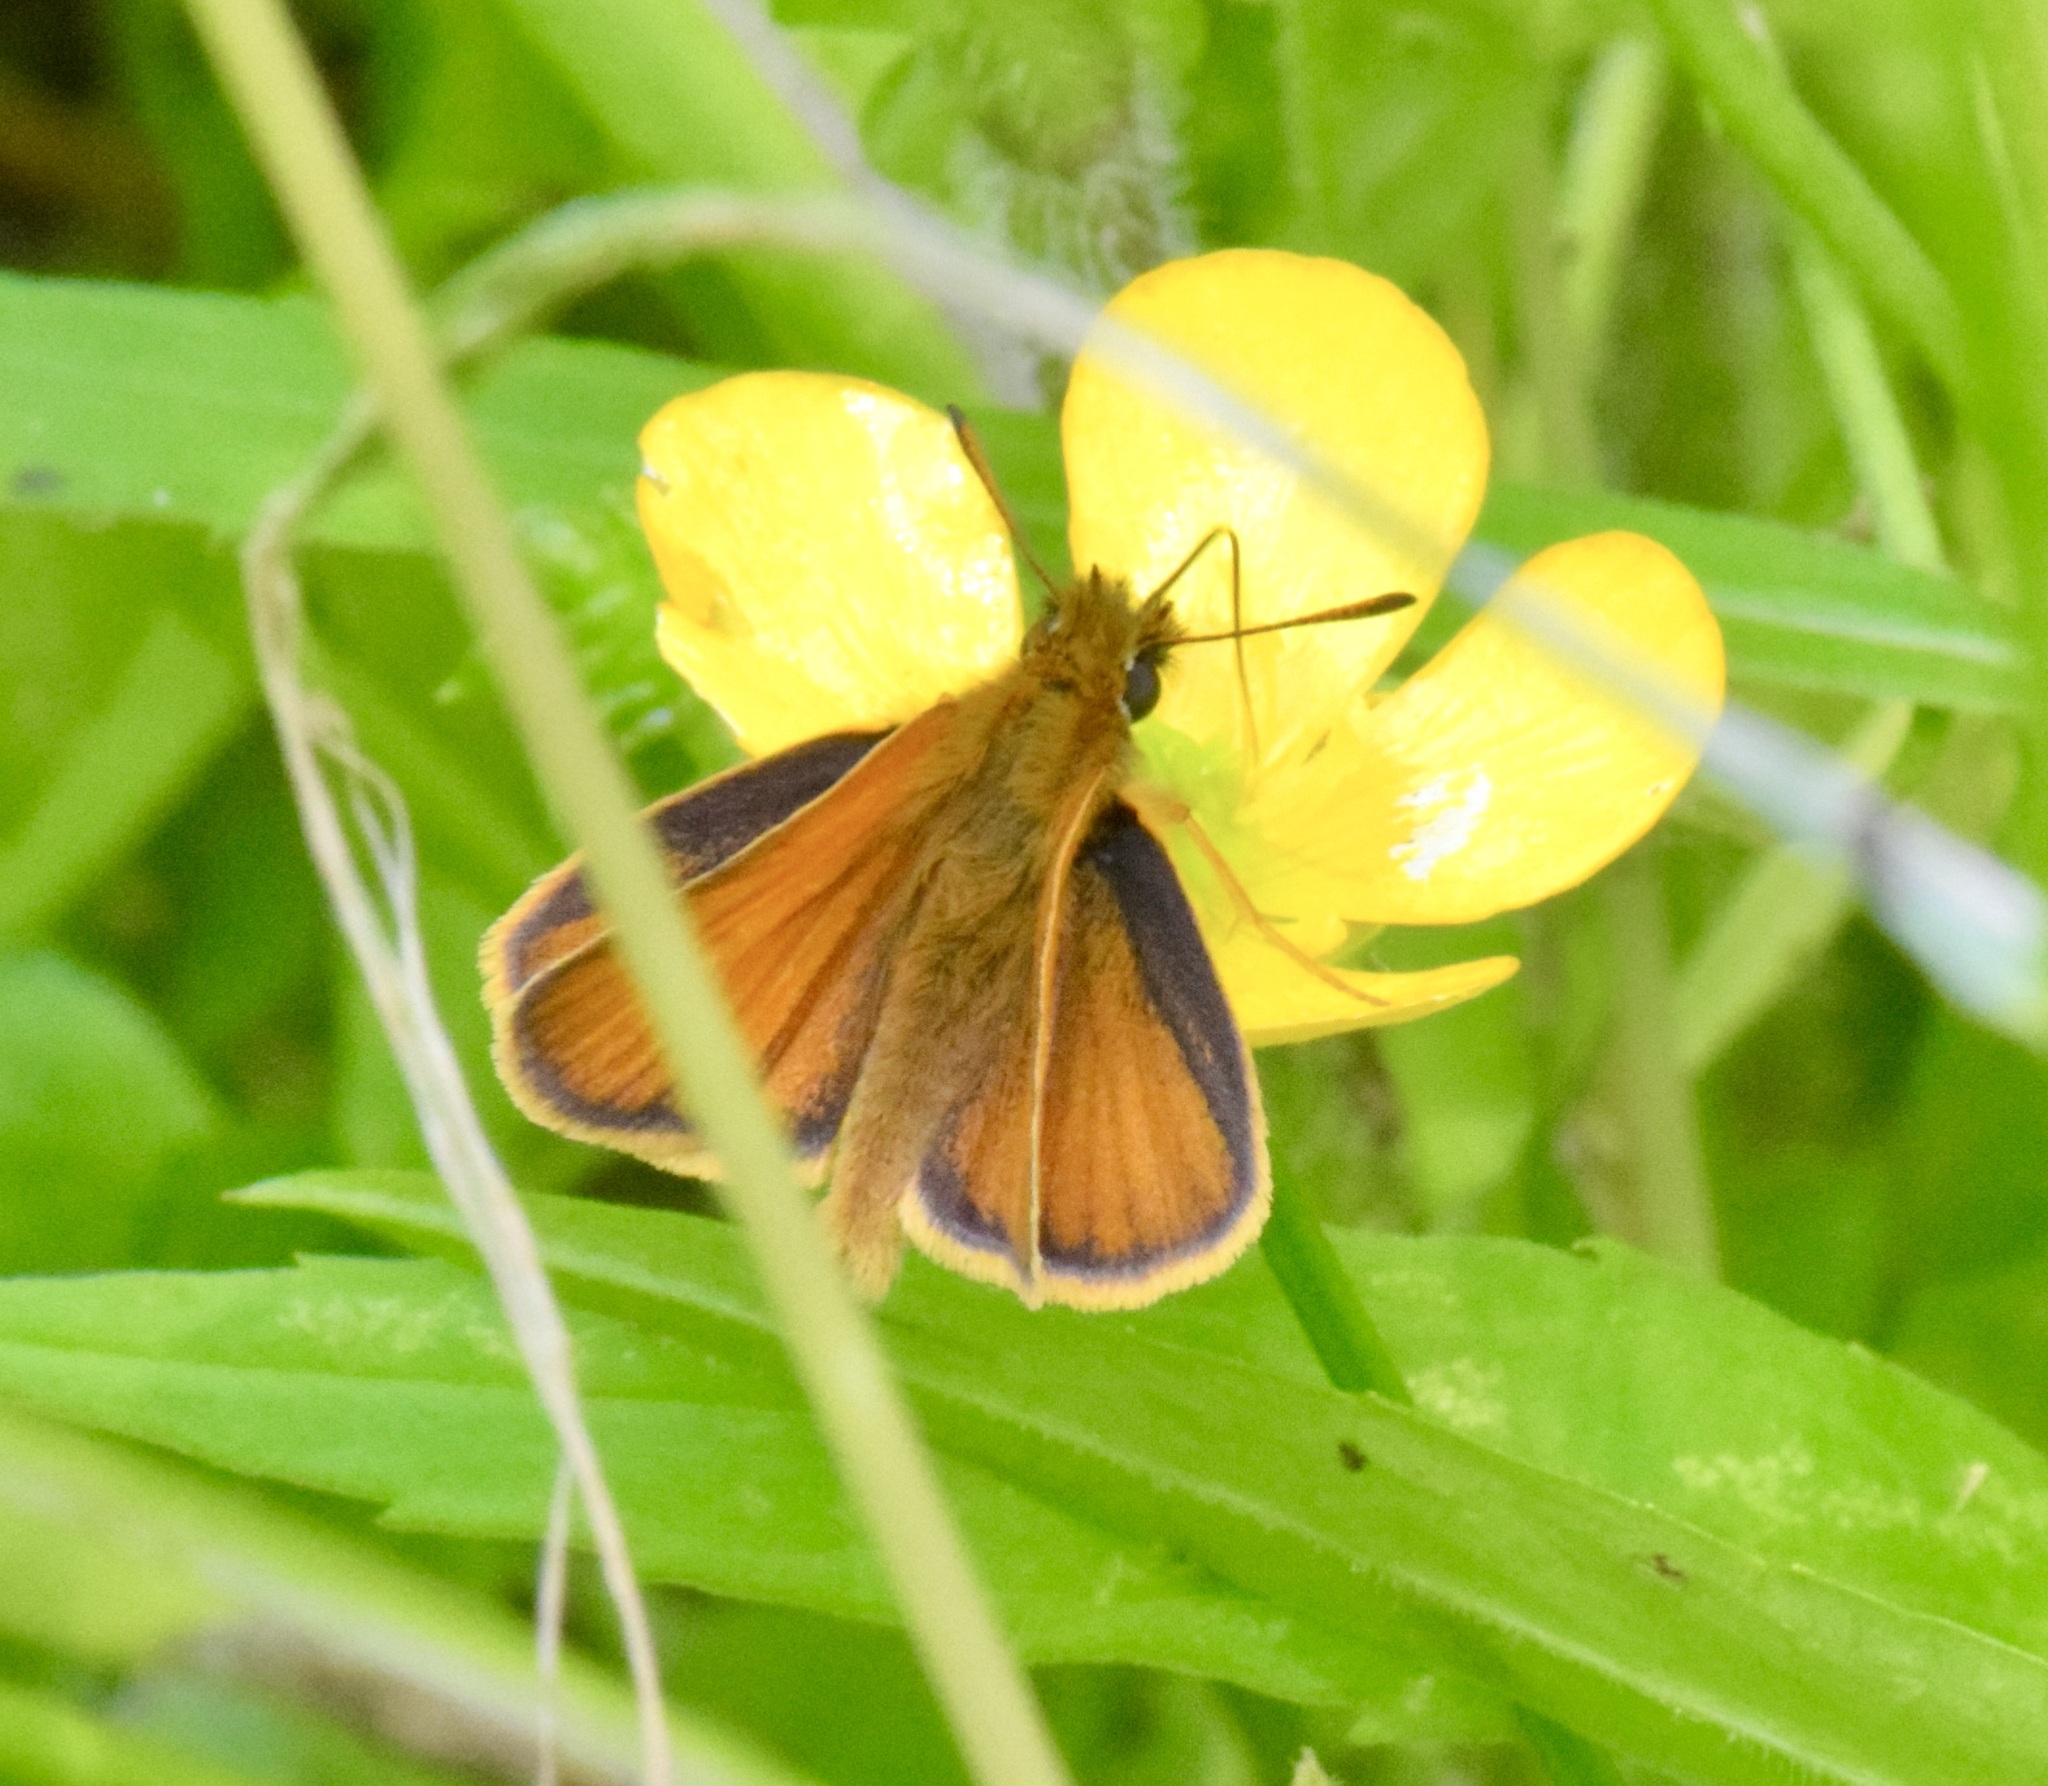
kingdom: Animalia
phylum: Arthropoda
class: Insecta
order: Lepidoptera
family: Hesperiidae
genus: Thymelicus
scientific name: Thymelicus lineola
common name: Essex skipper
